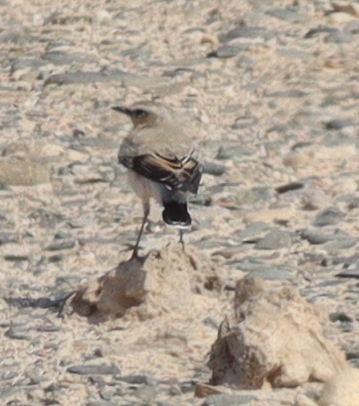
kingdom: Animalia
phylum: Chordata
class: Aves
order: Passeriformes
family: Muscicapidae
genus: Oenanthe
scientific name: Oenanthe oenanthe
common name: Northern wheatear
